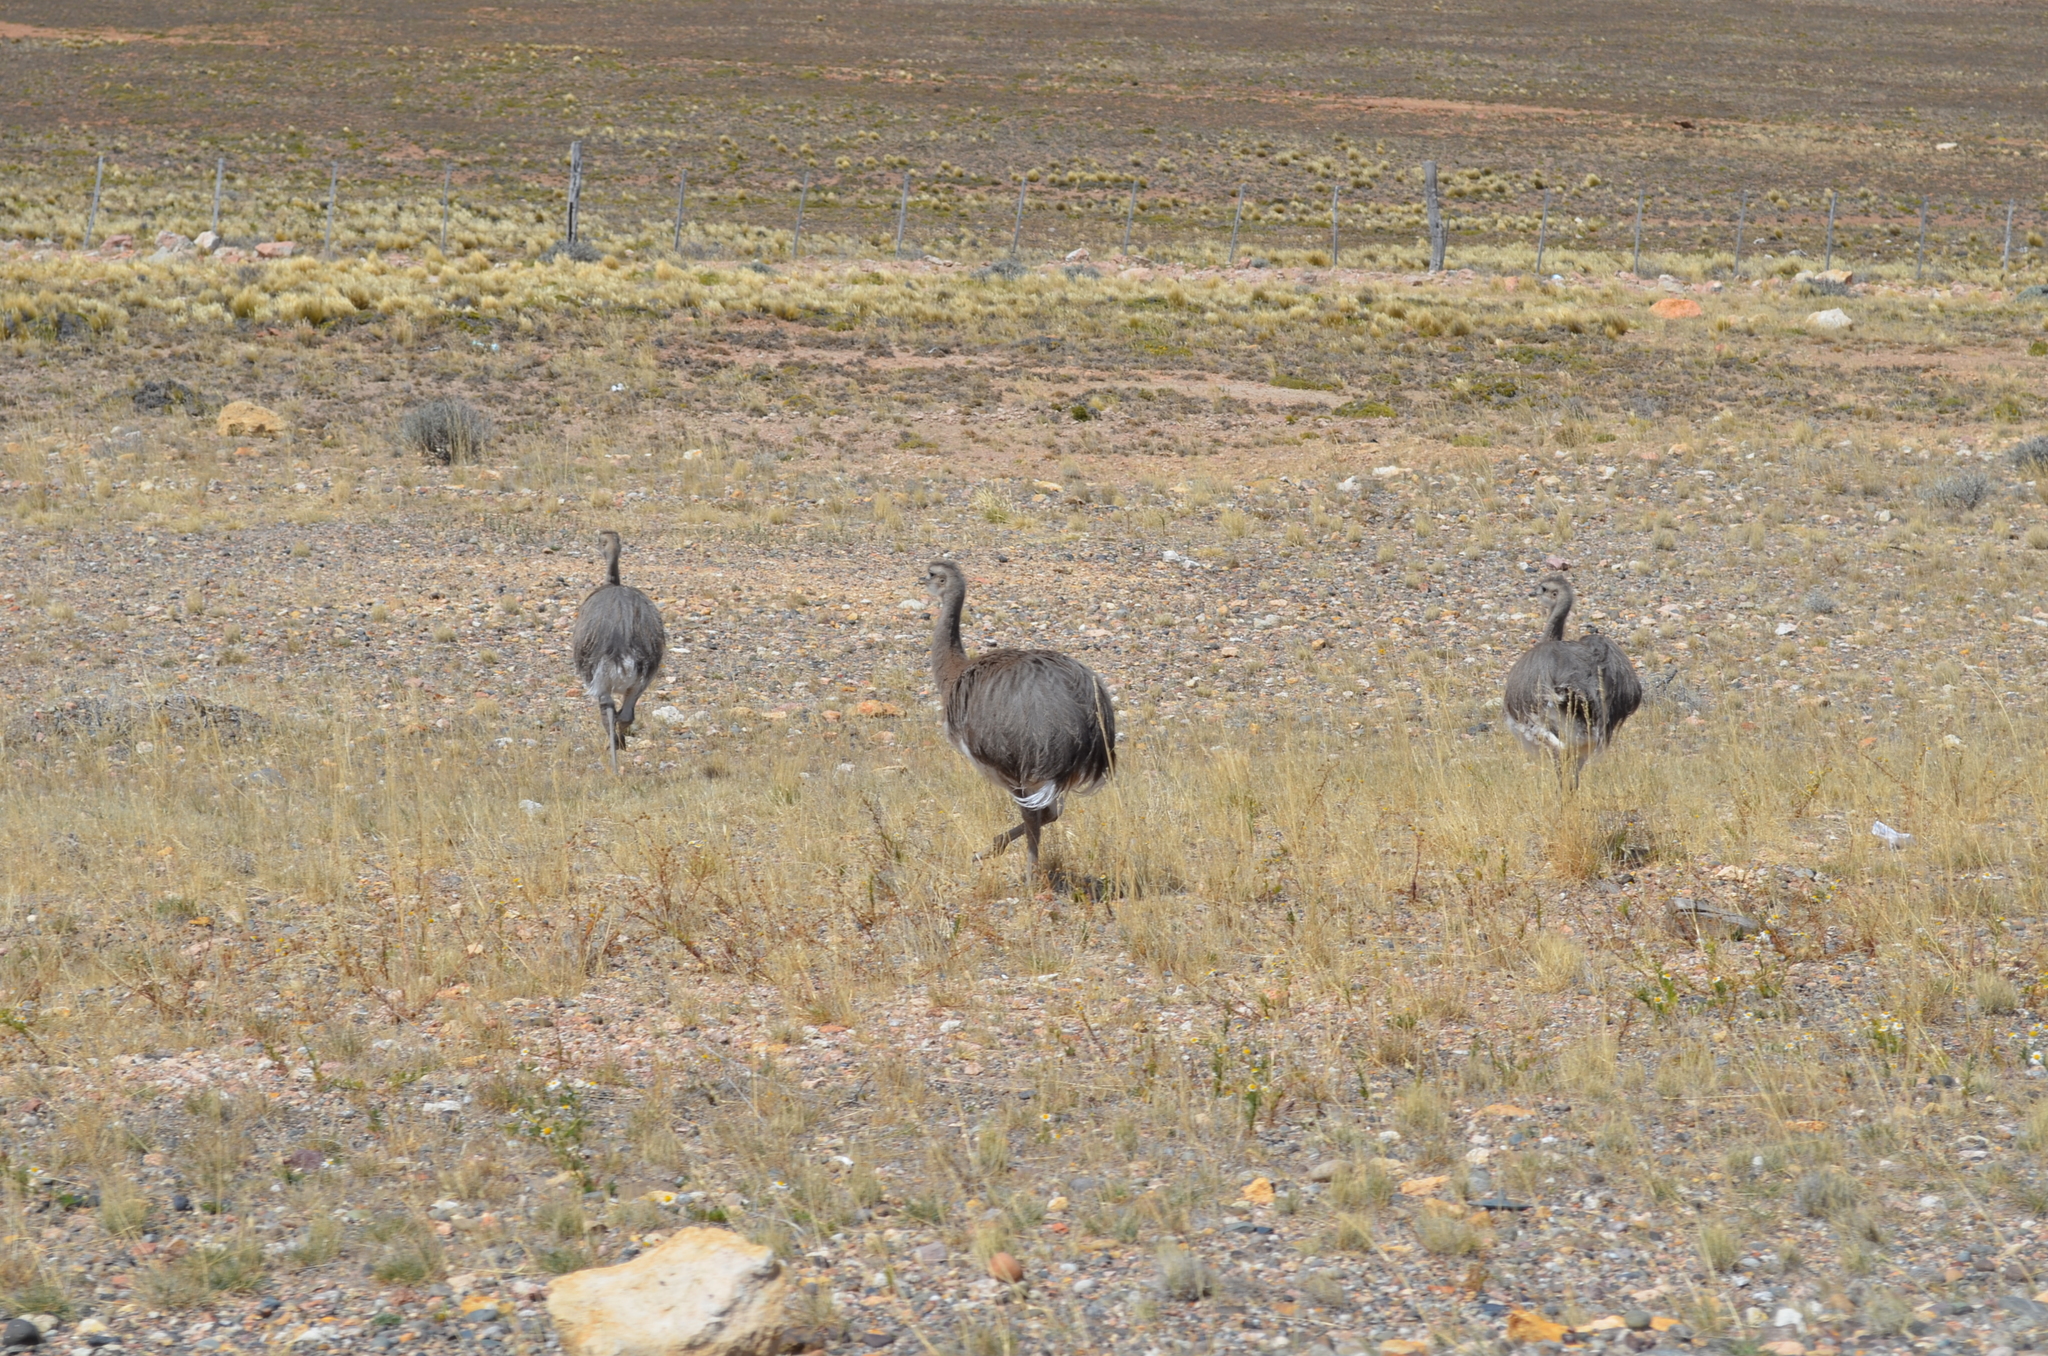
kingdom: Animalia
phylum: Chordata
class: Aves
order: Rheiformes
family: Rheidae
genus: Rhea
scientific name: Rhea pennata
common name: Lesser rhea
